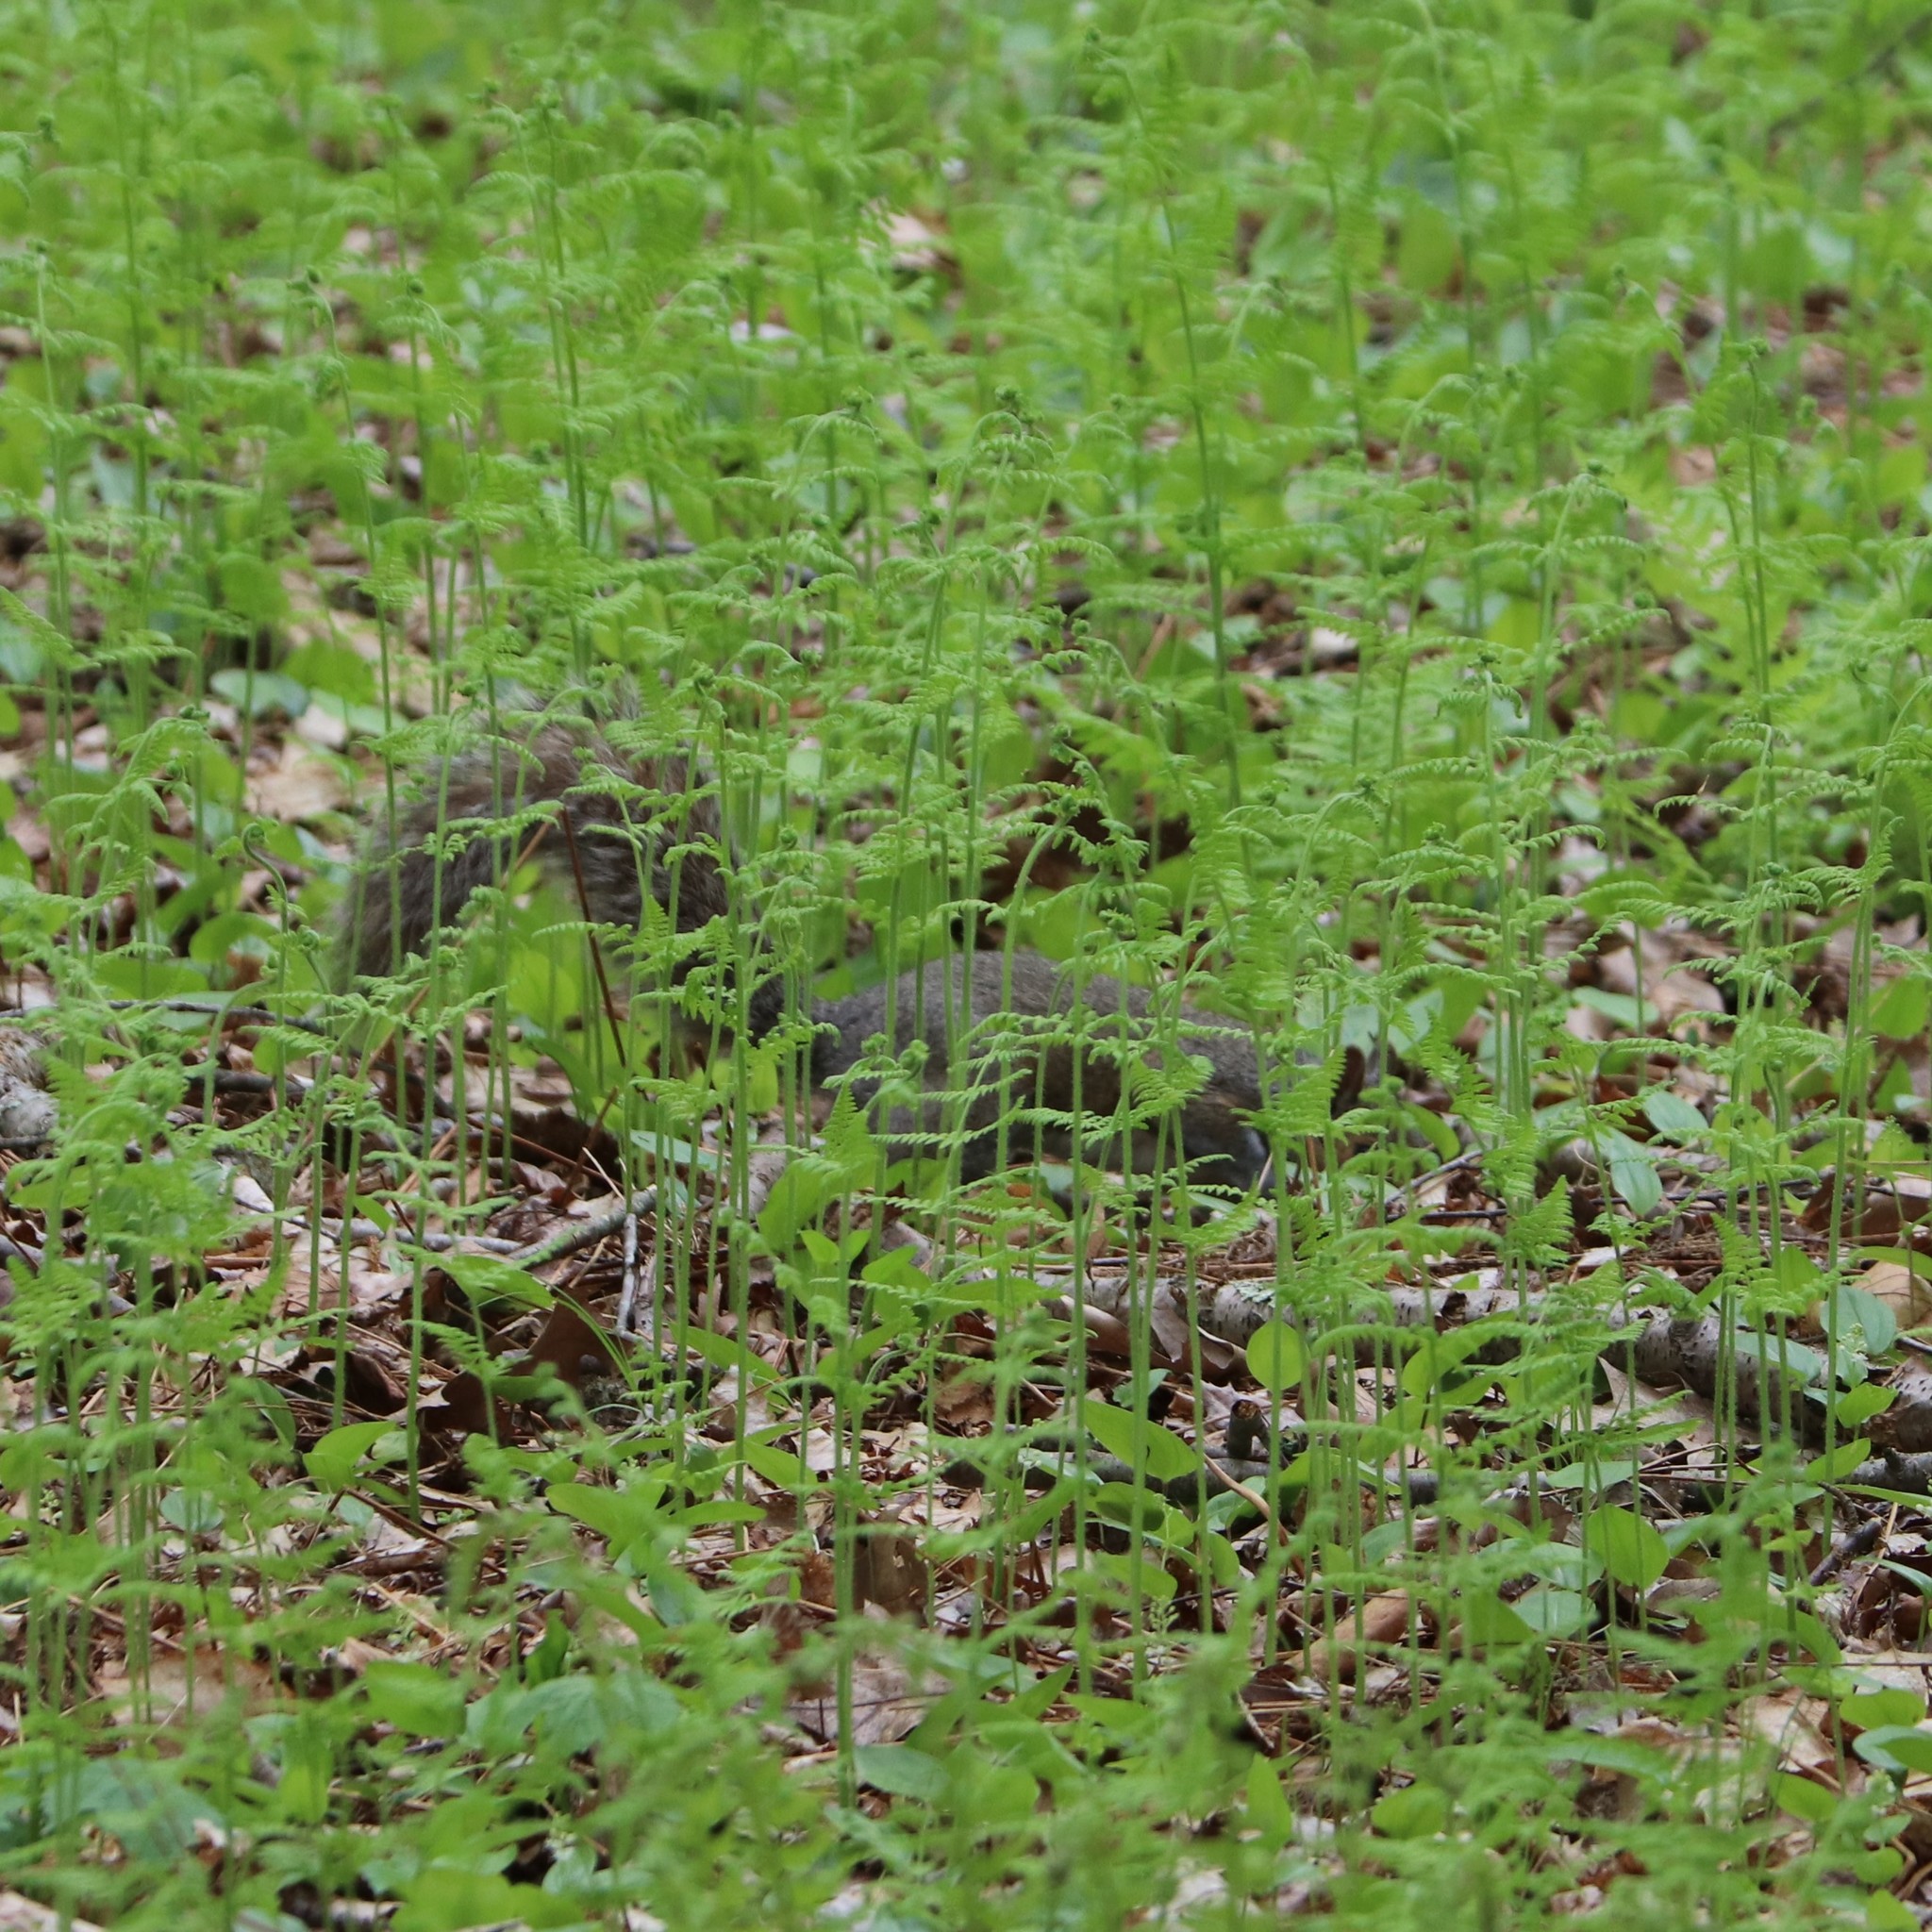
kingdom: Animalia
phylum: Chordata
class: Mammalia
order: Rodentia
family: Sciuridae
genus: Sciurus
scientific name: Sciurus carolinensis
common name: Eastern gray squirrel
